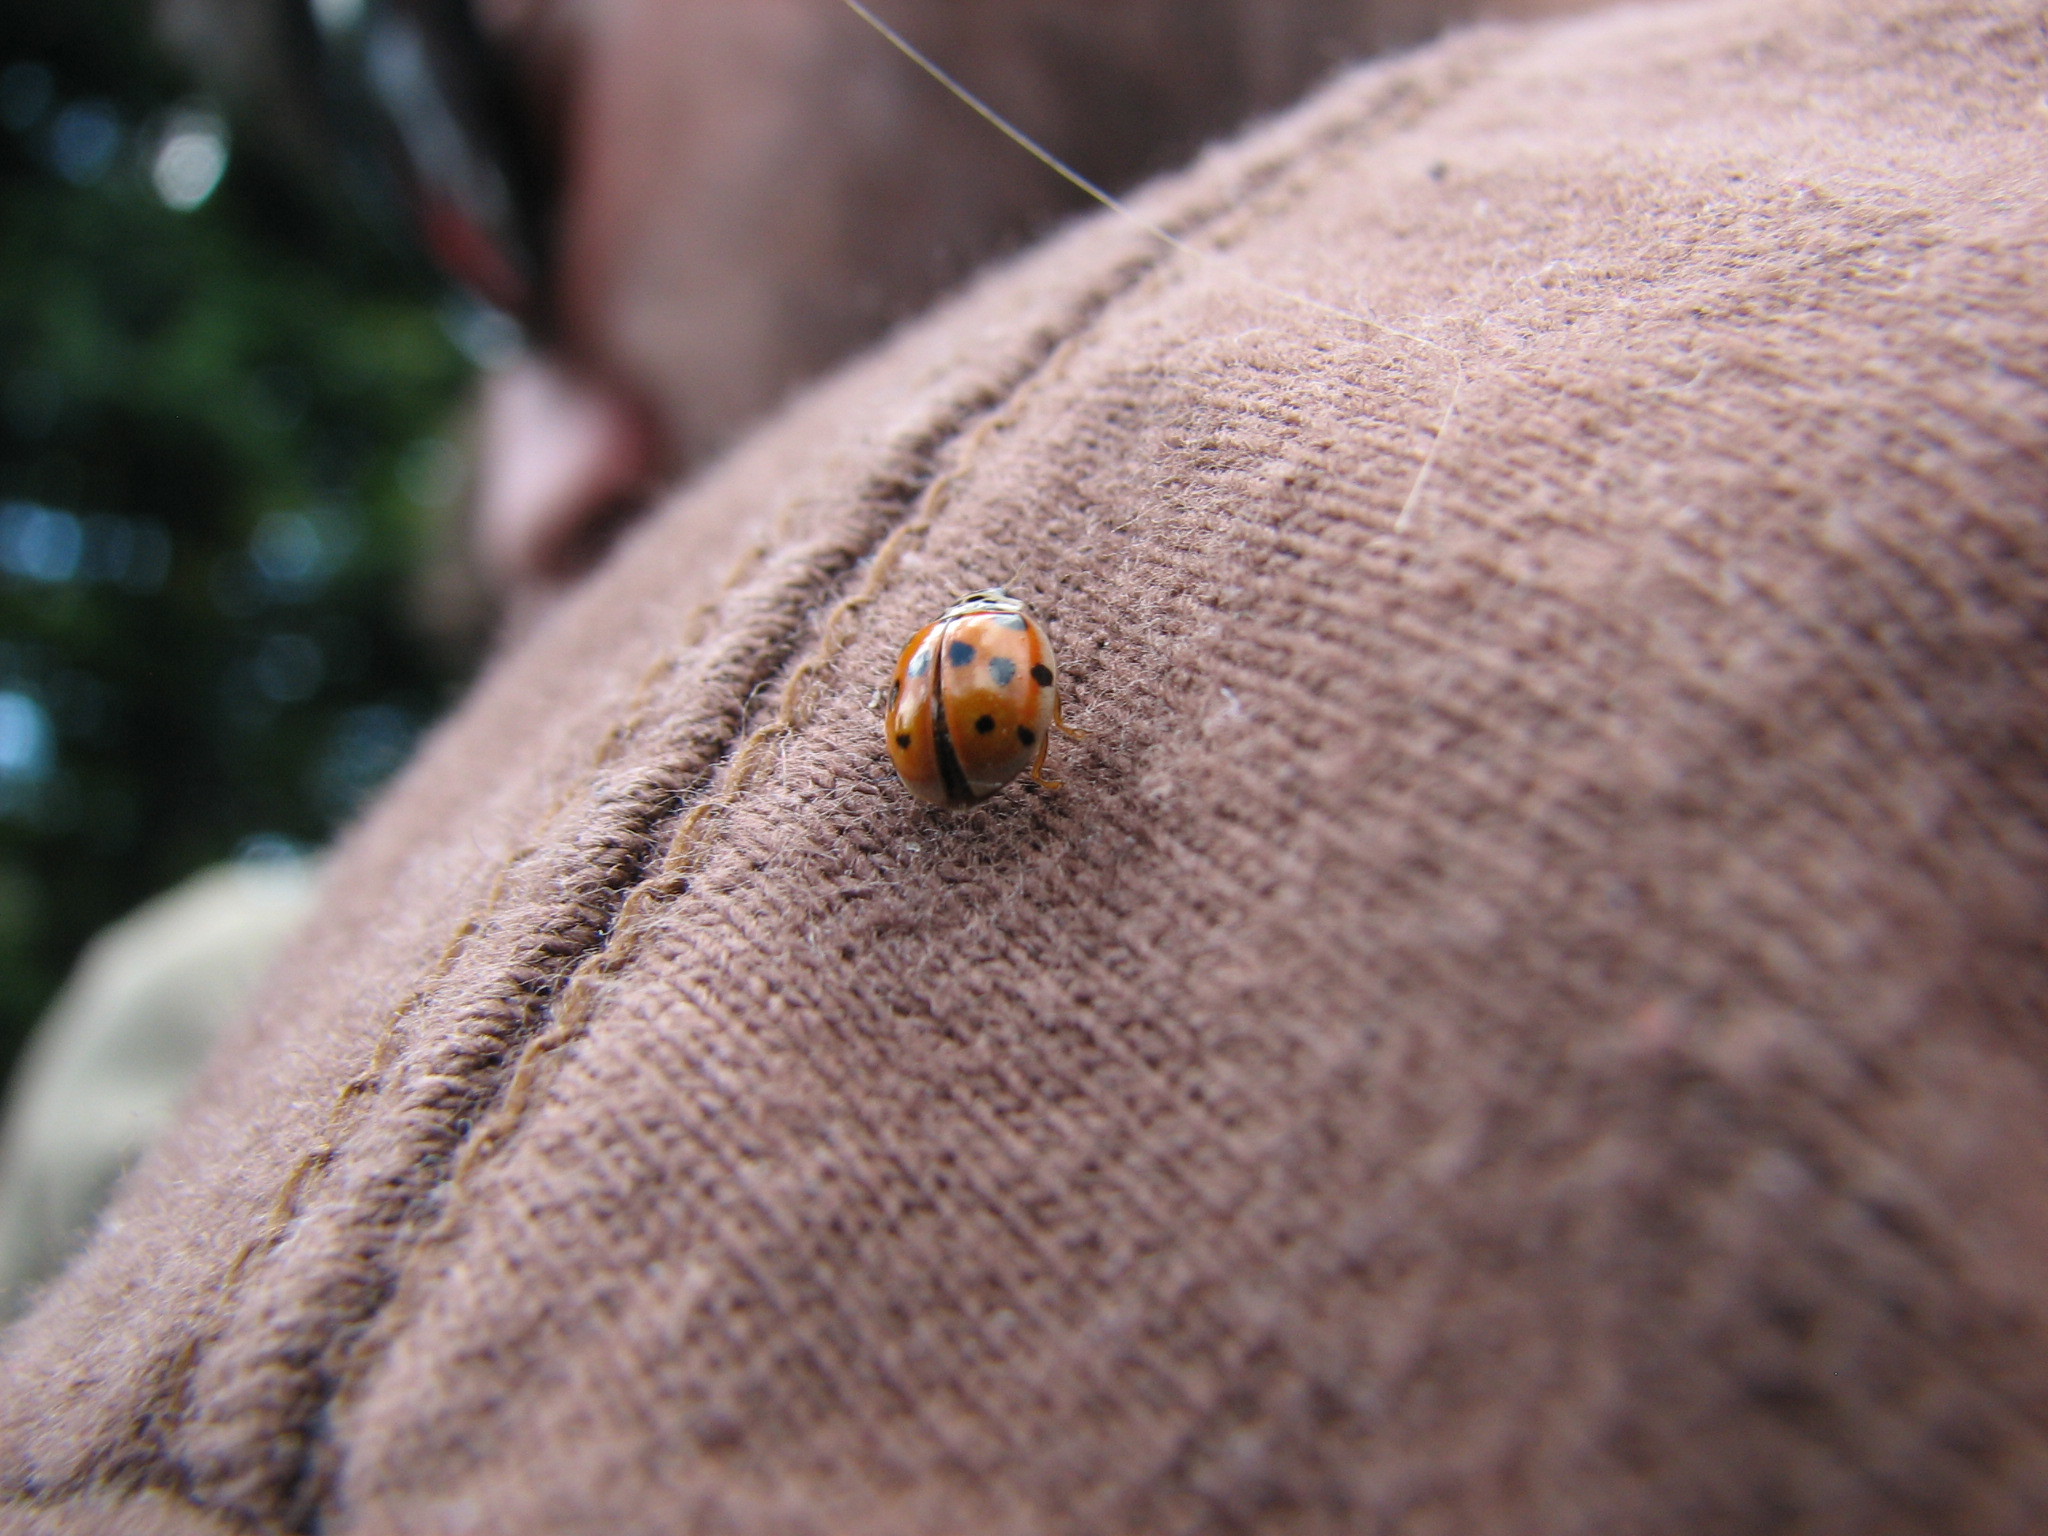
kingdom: Animalia
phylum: Arthropoda
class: Insecta
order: Coleoptera
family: Coccinellidae
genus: Adalia
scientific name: Adalia decempunctata
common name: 10-spot ladybird
